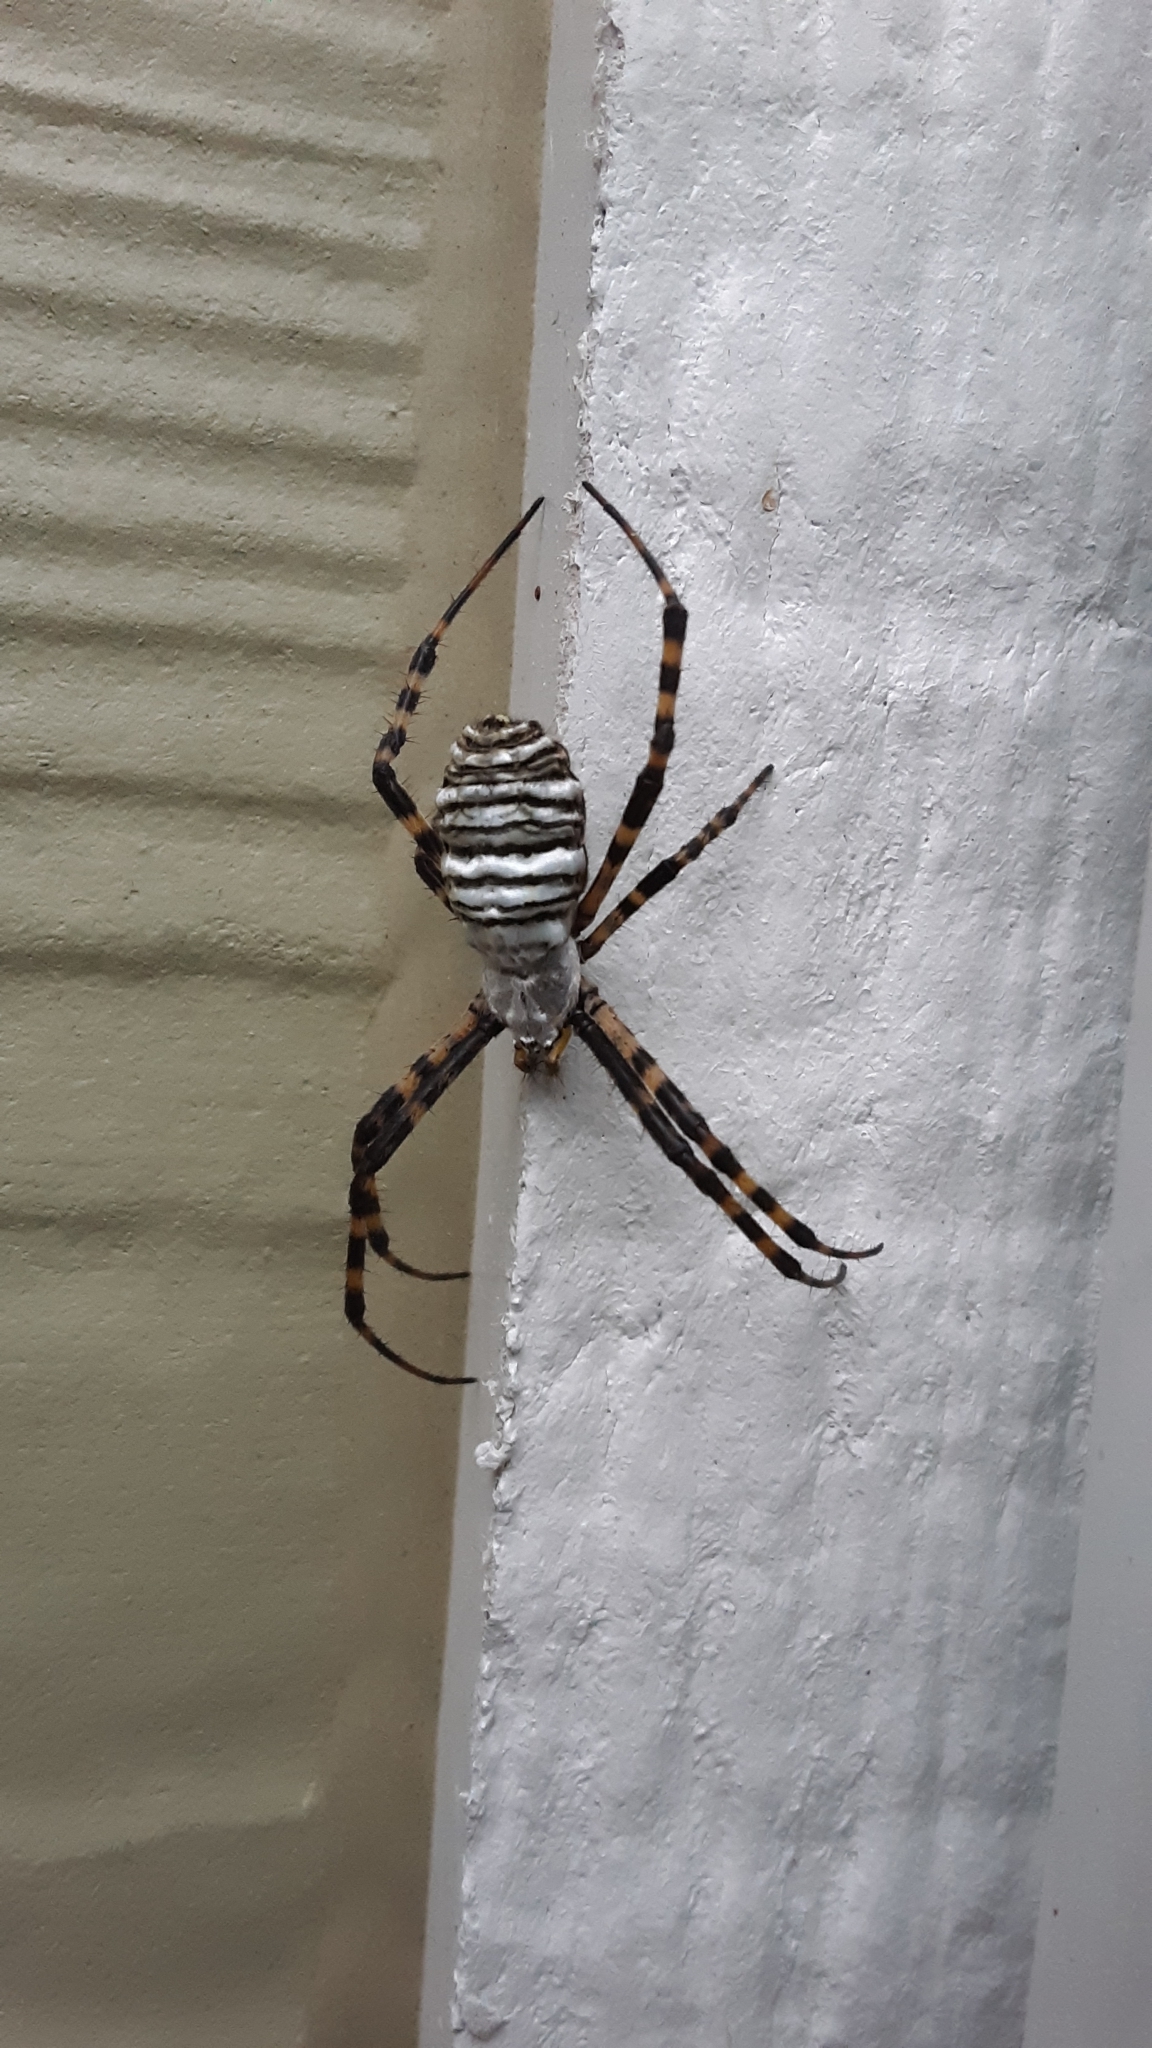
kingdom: Animalia
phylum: Arthropoda
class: Arachnida
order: Araneae
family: Araneidae
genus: Argiope
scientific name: Argiope trifasciata
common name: Banded garden spider
